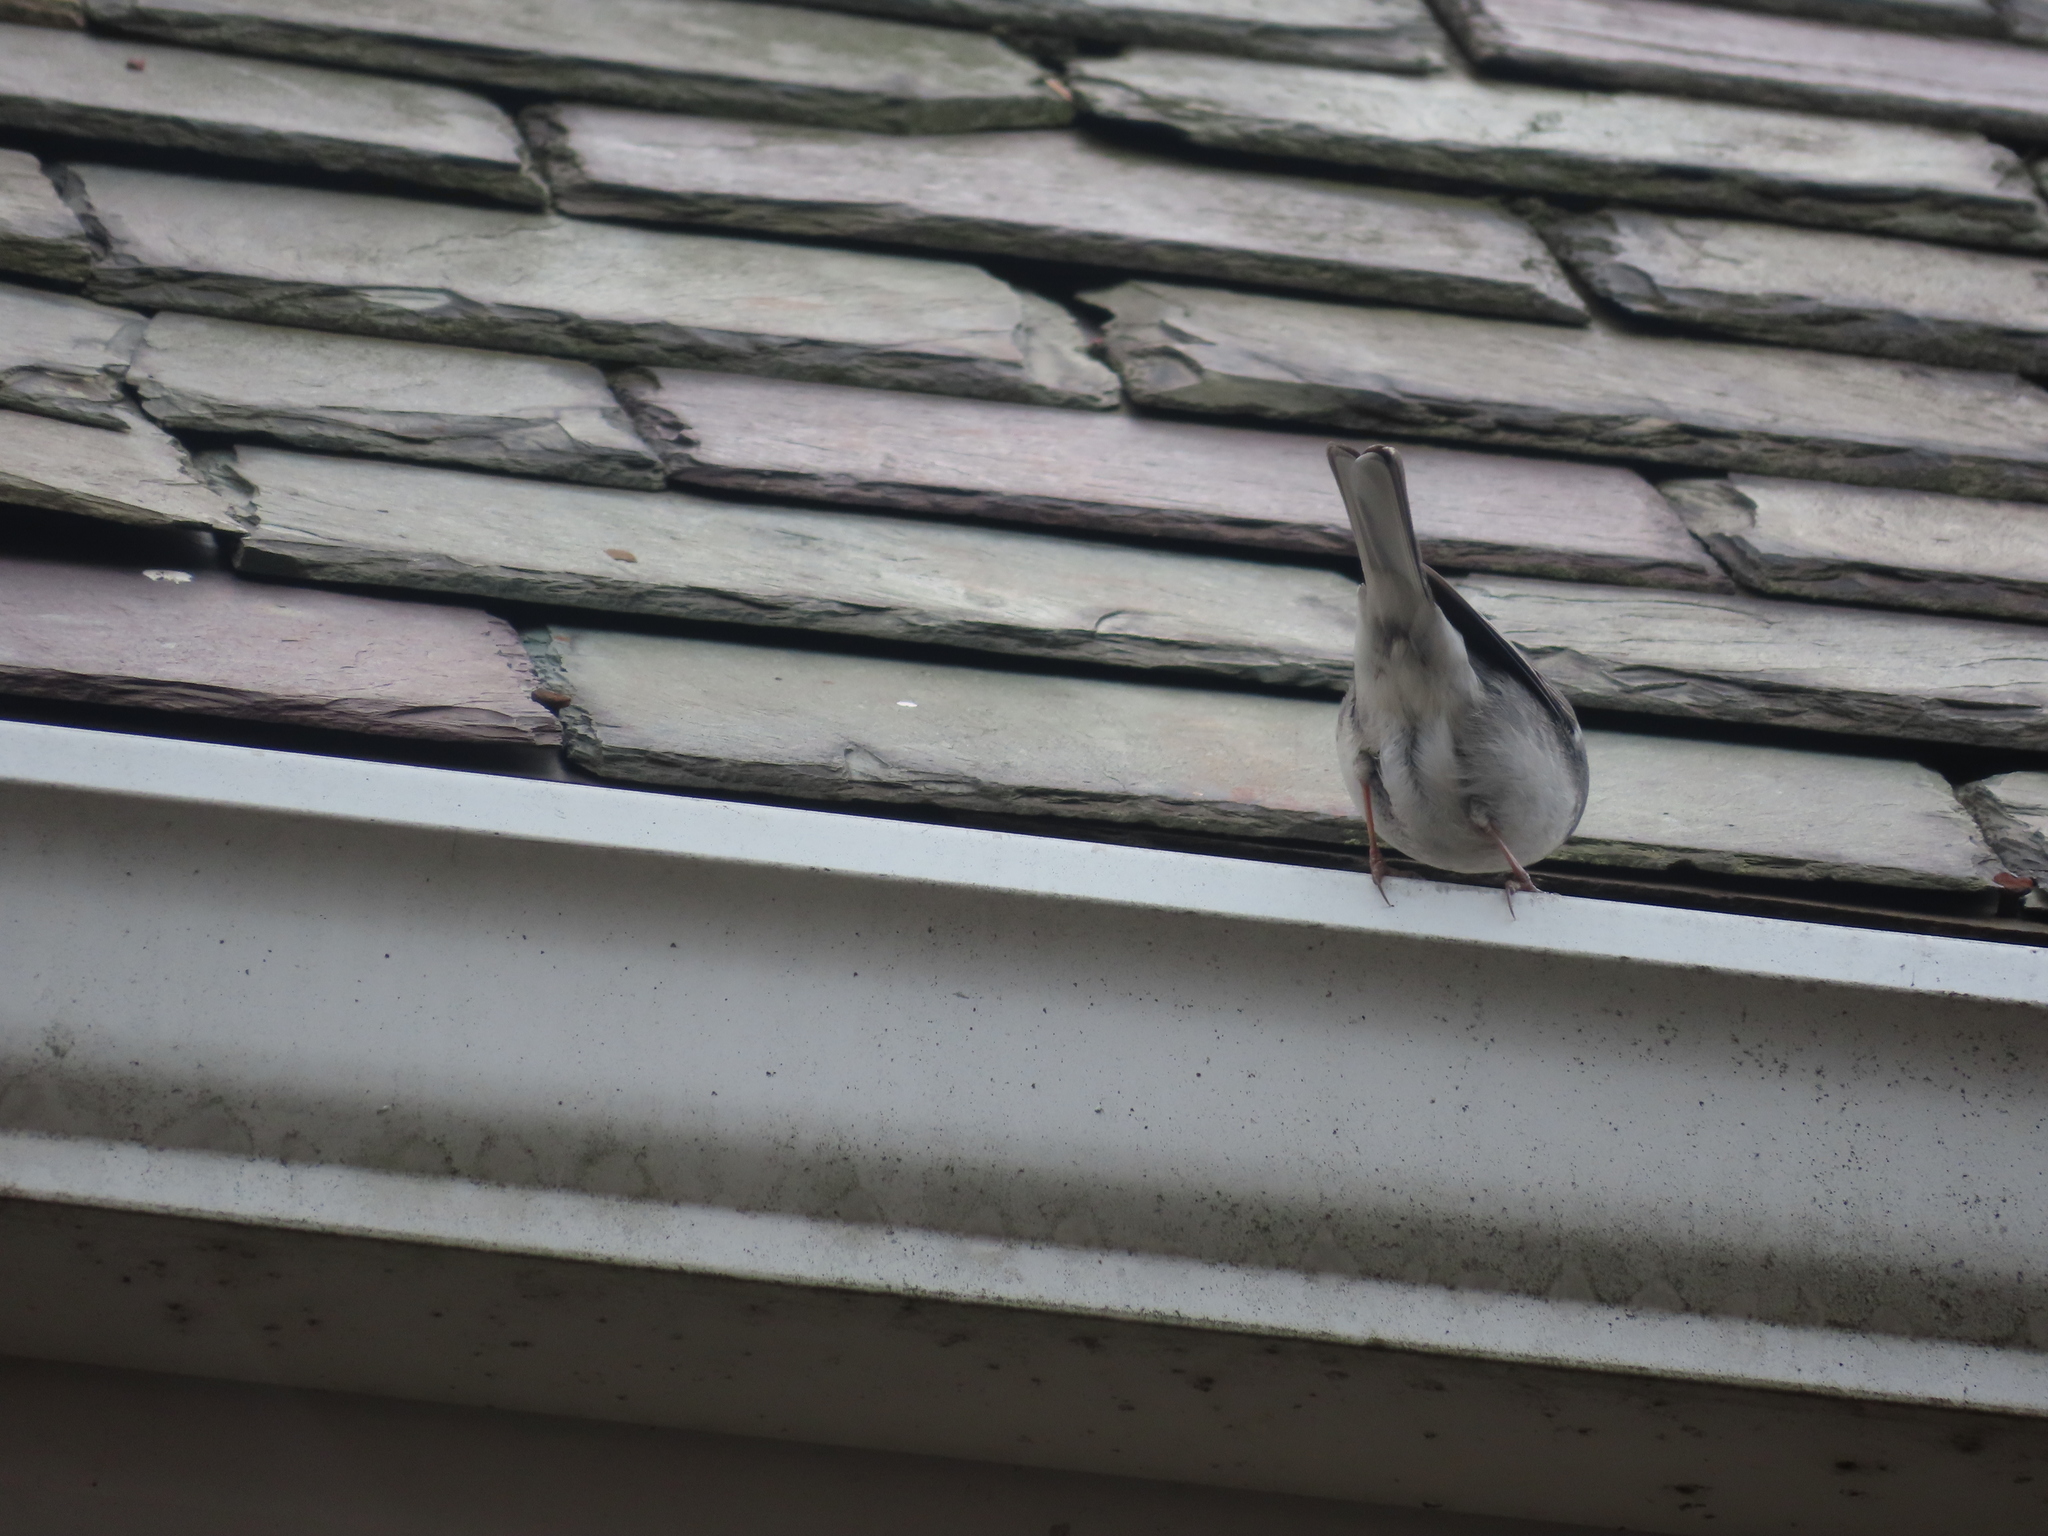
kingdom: Animalia
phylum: Chordata
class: Aves
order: Passeriformes
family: Passerellidae
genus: Junco
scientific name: Junco hyemalis
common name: Dark-eyed junco
